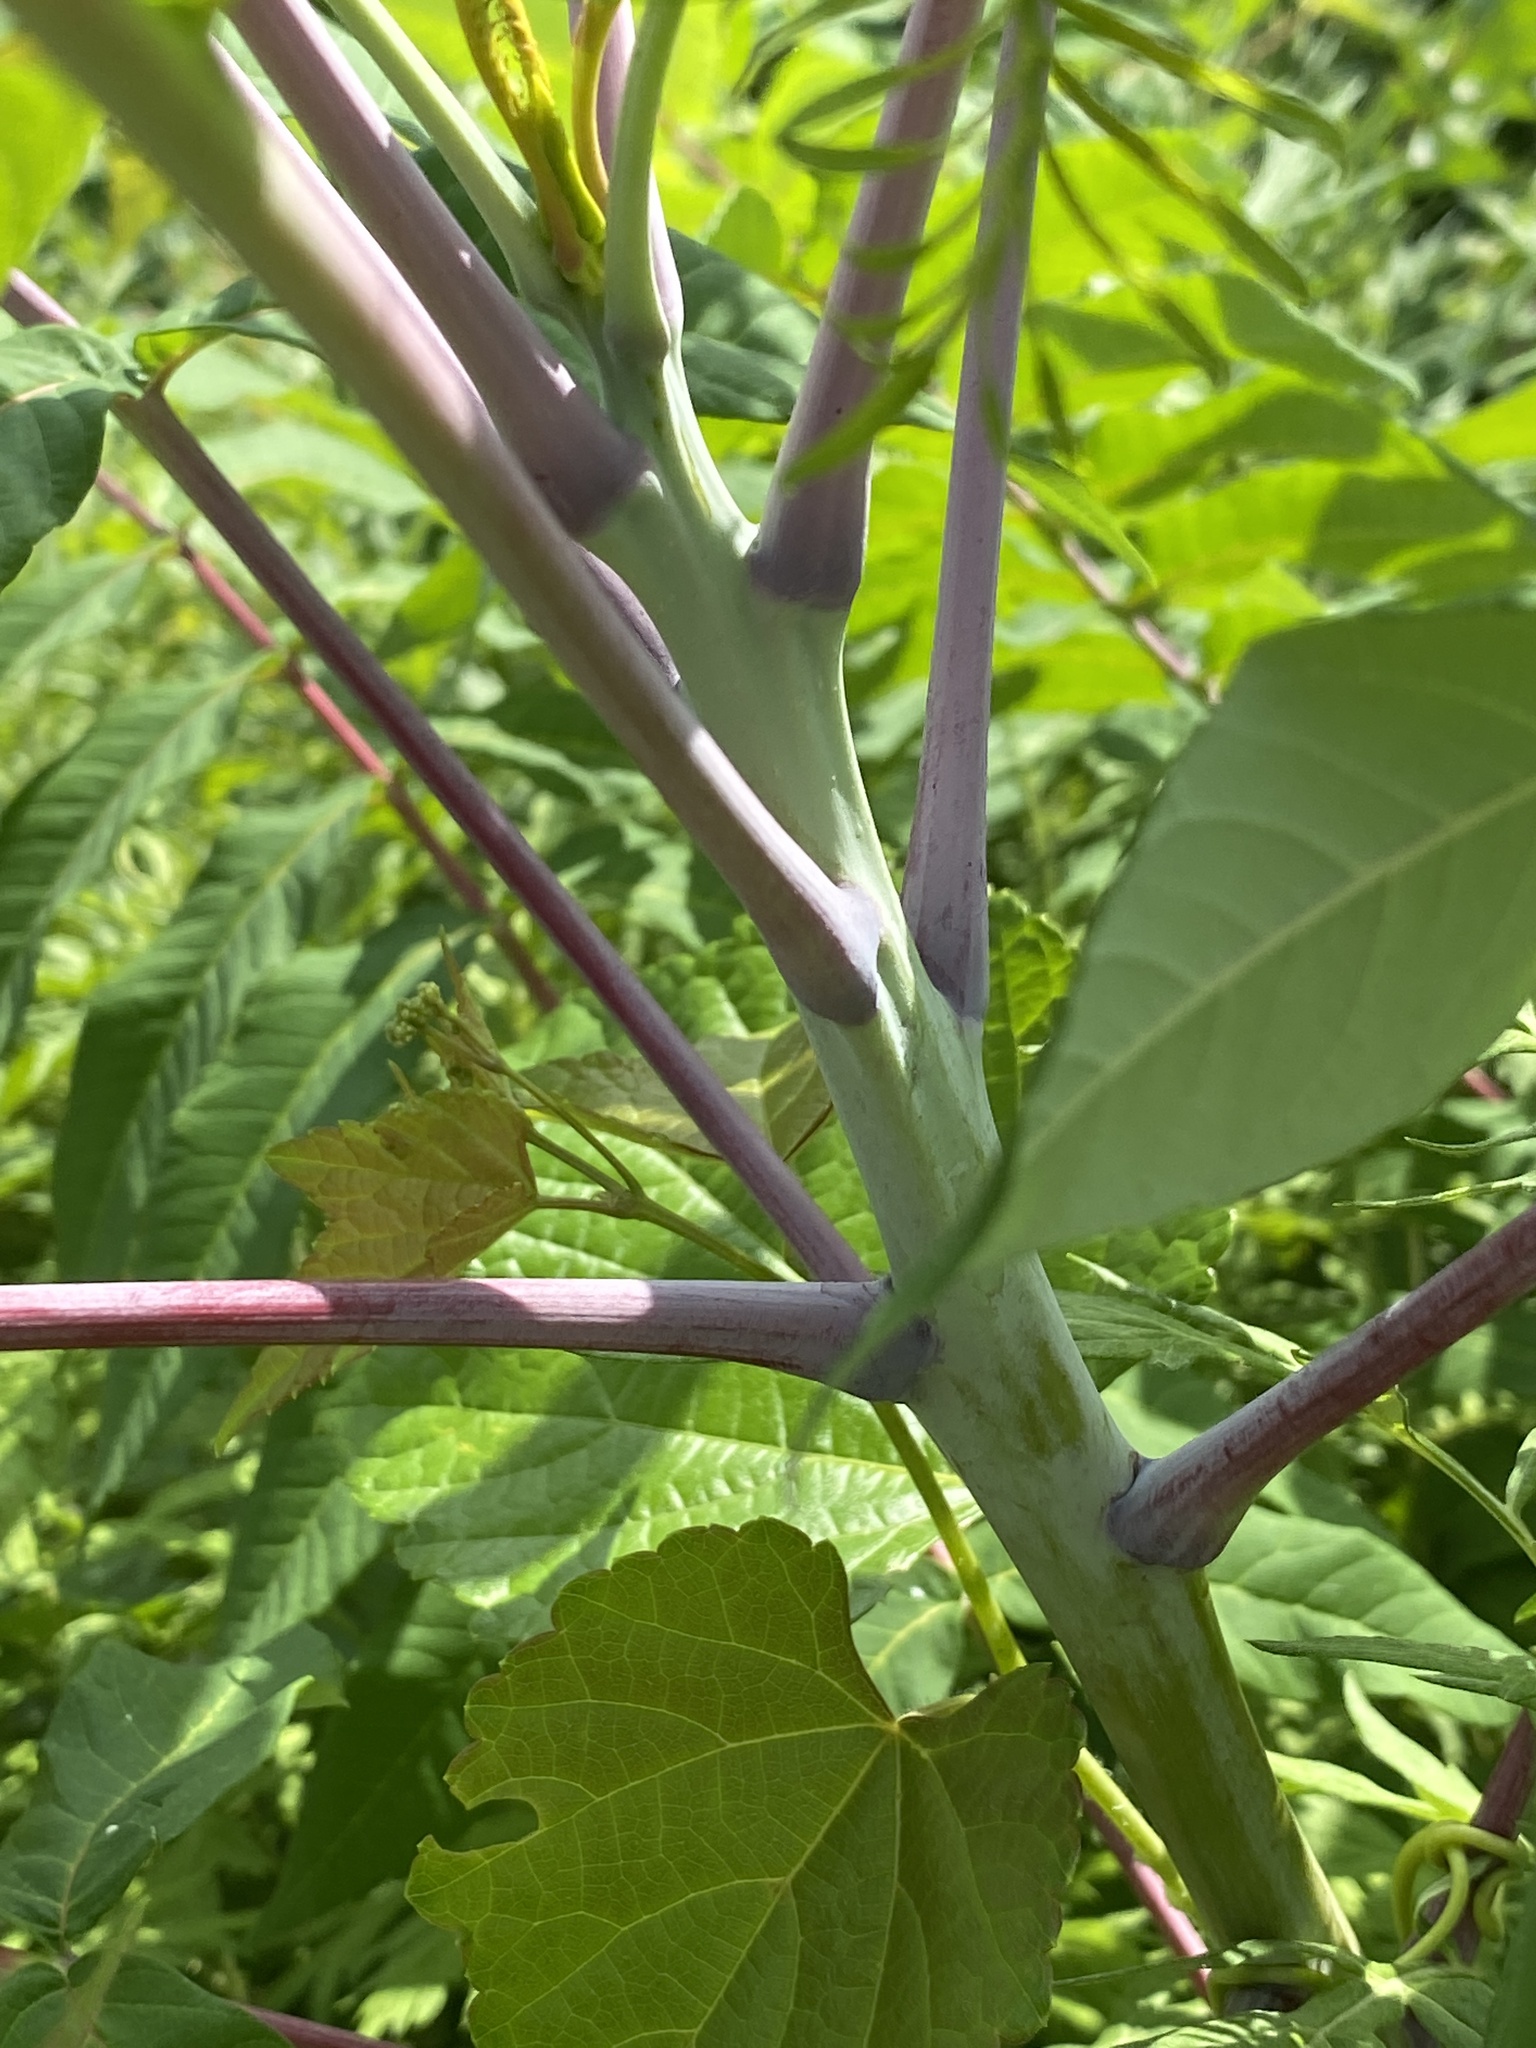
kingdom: Plantae
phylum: Tracheophyta
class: Magnoliopsida
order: Sapindales
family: Anacardiaceae
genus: Rhus
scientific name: Rhus glabra
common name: Scarlet sumac
